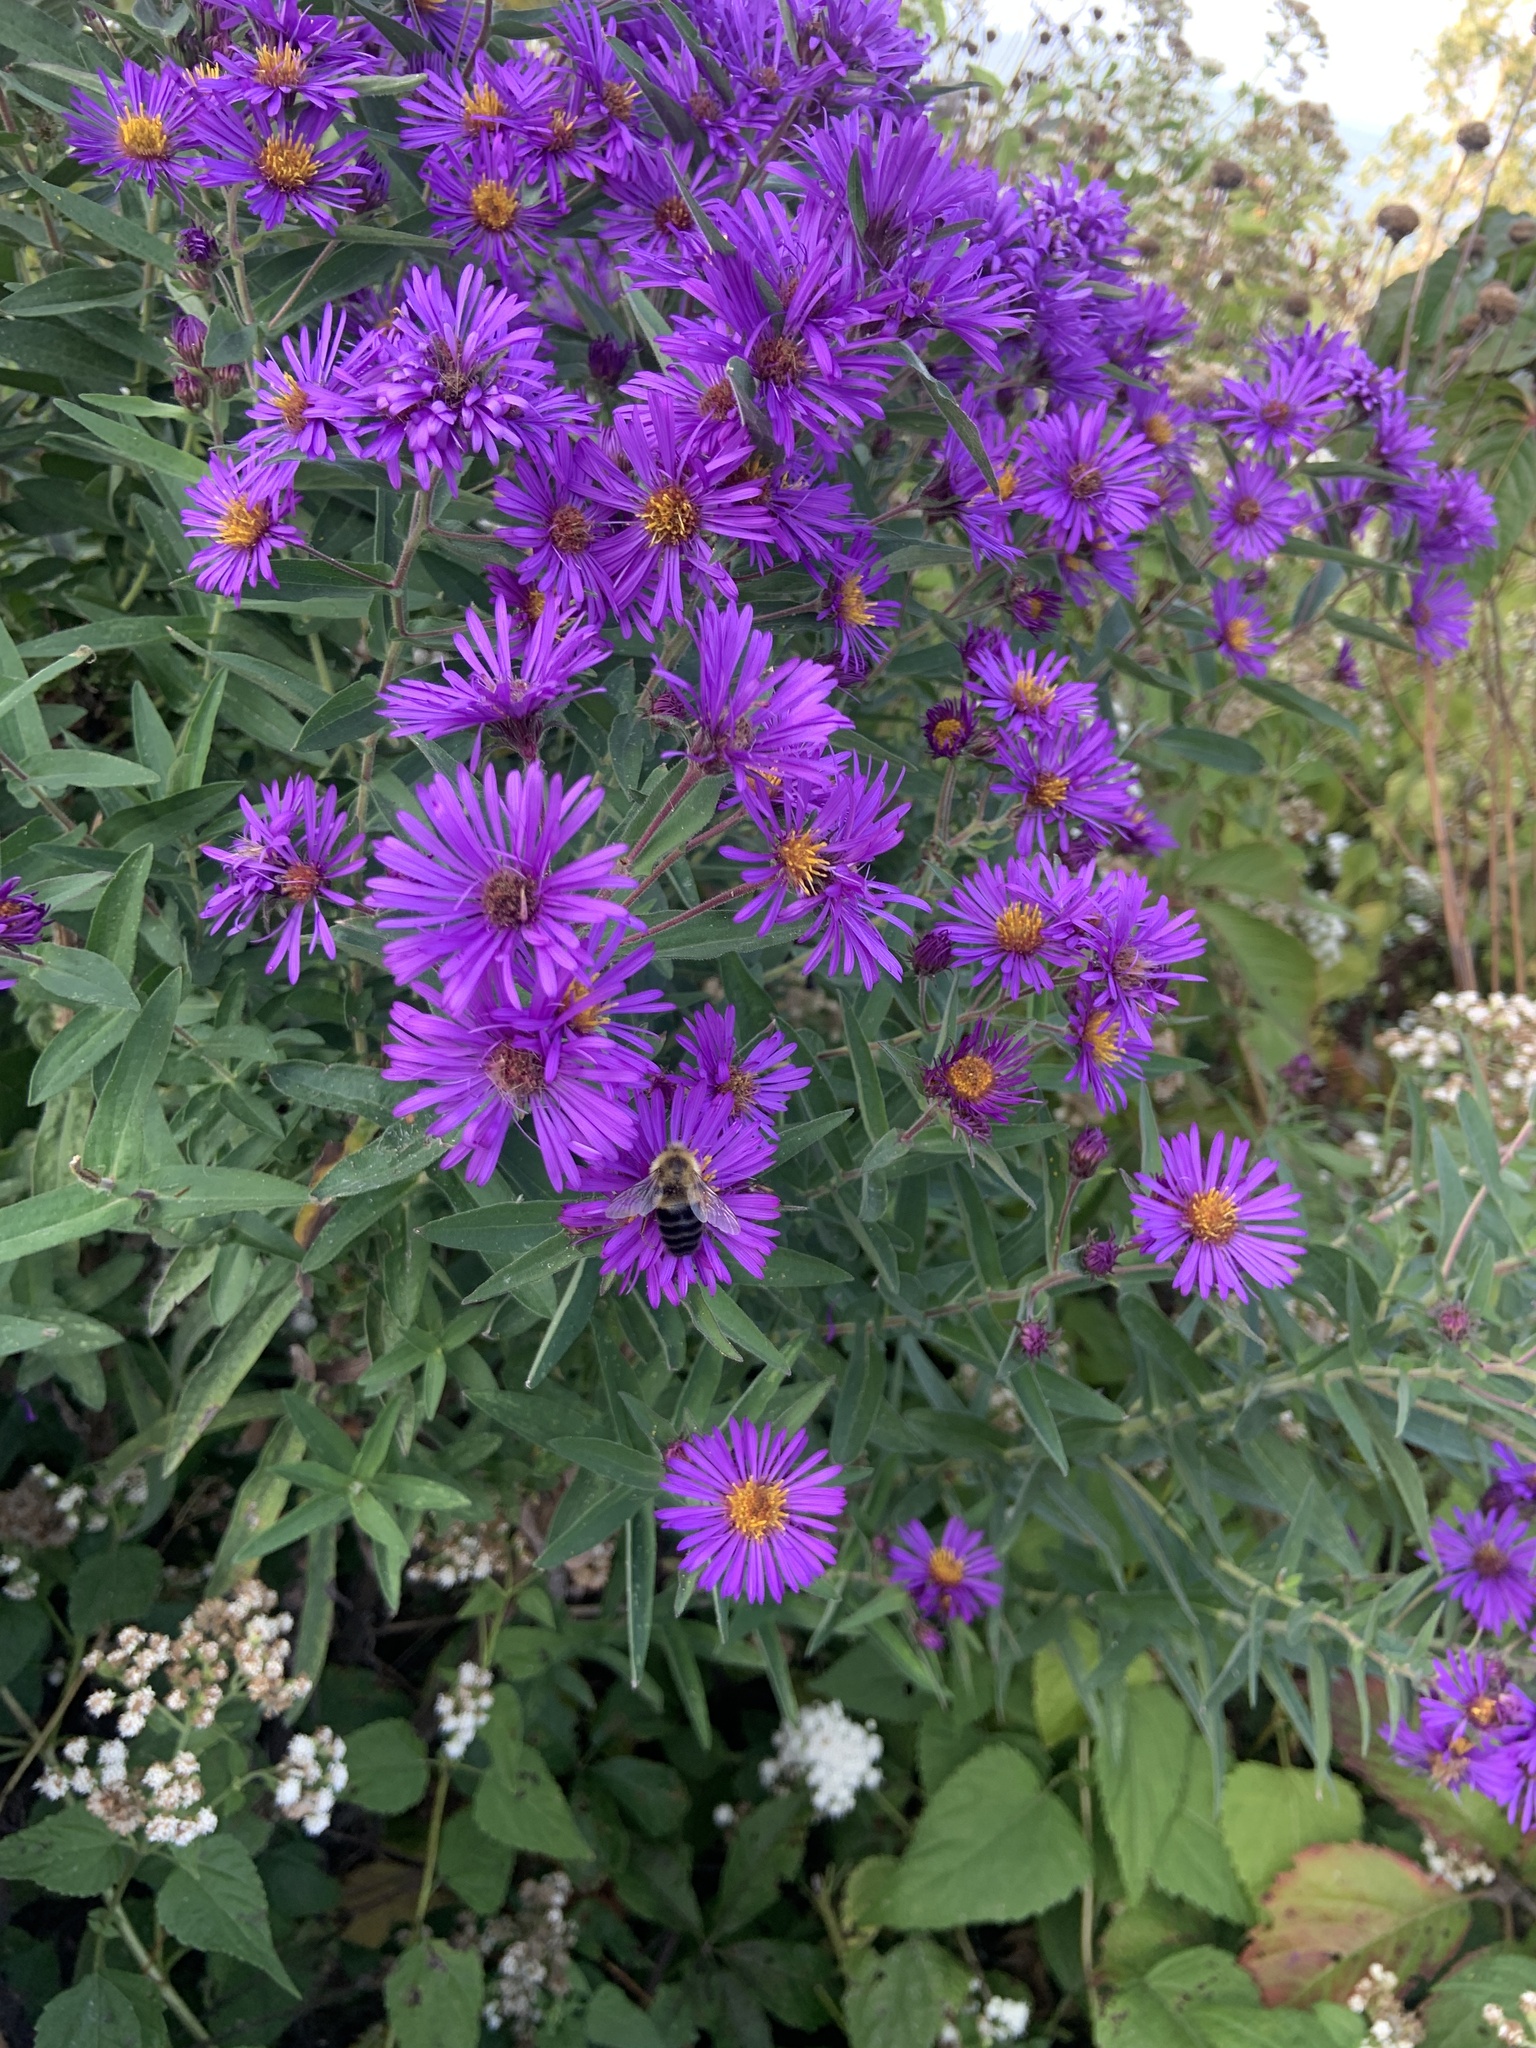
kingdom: Animalia
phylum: Arthropoda
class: Insecta
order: Hymenoptera
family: Apidae
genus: Bombus
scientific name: Bombus impatiens
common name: Common eastern bumble bee
